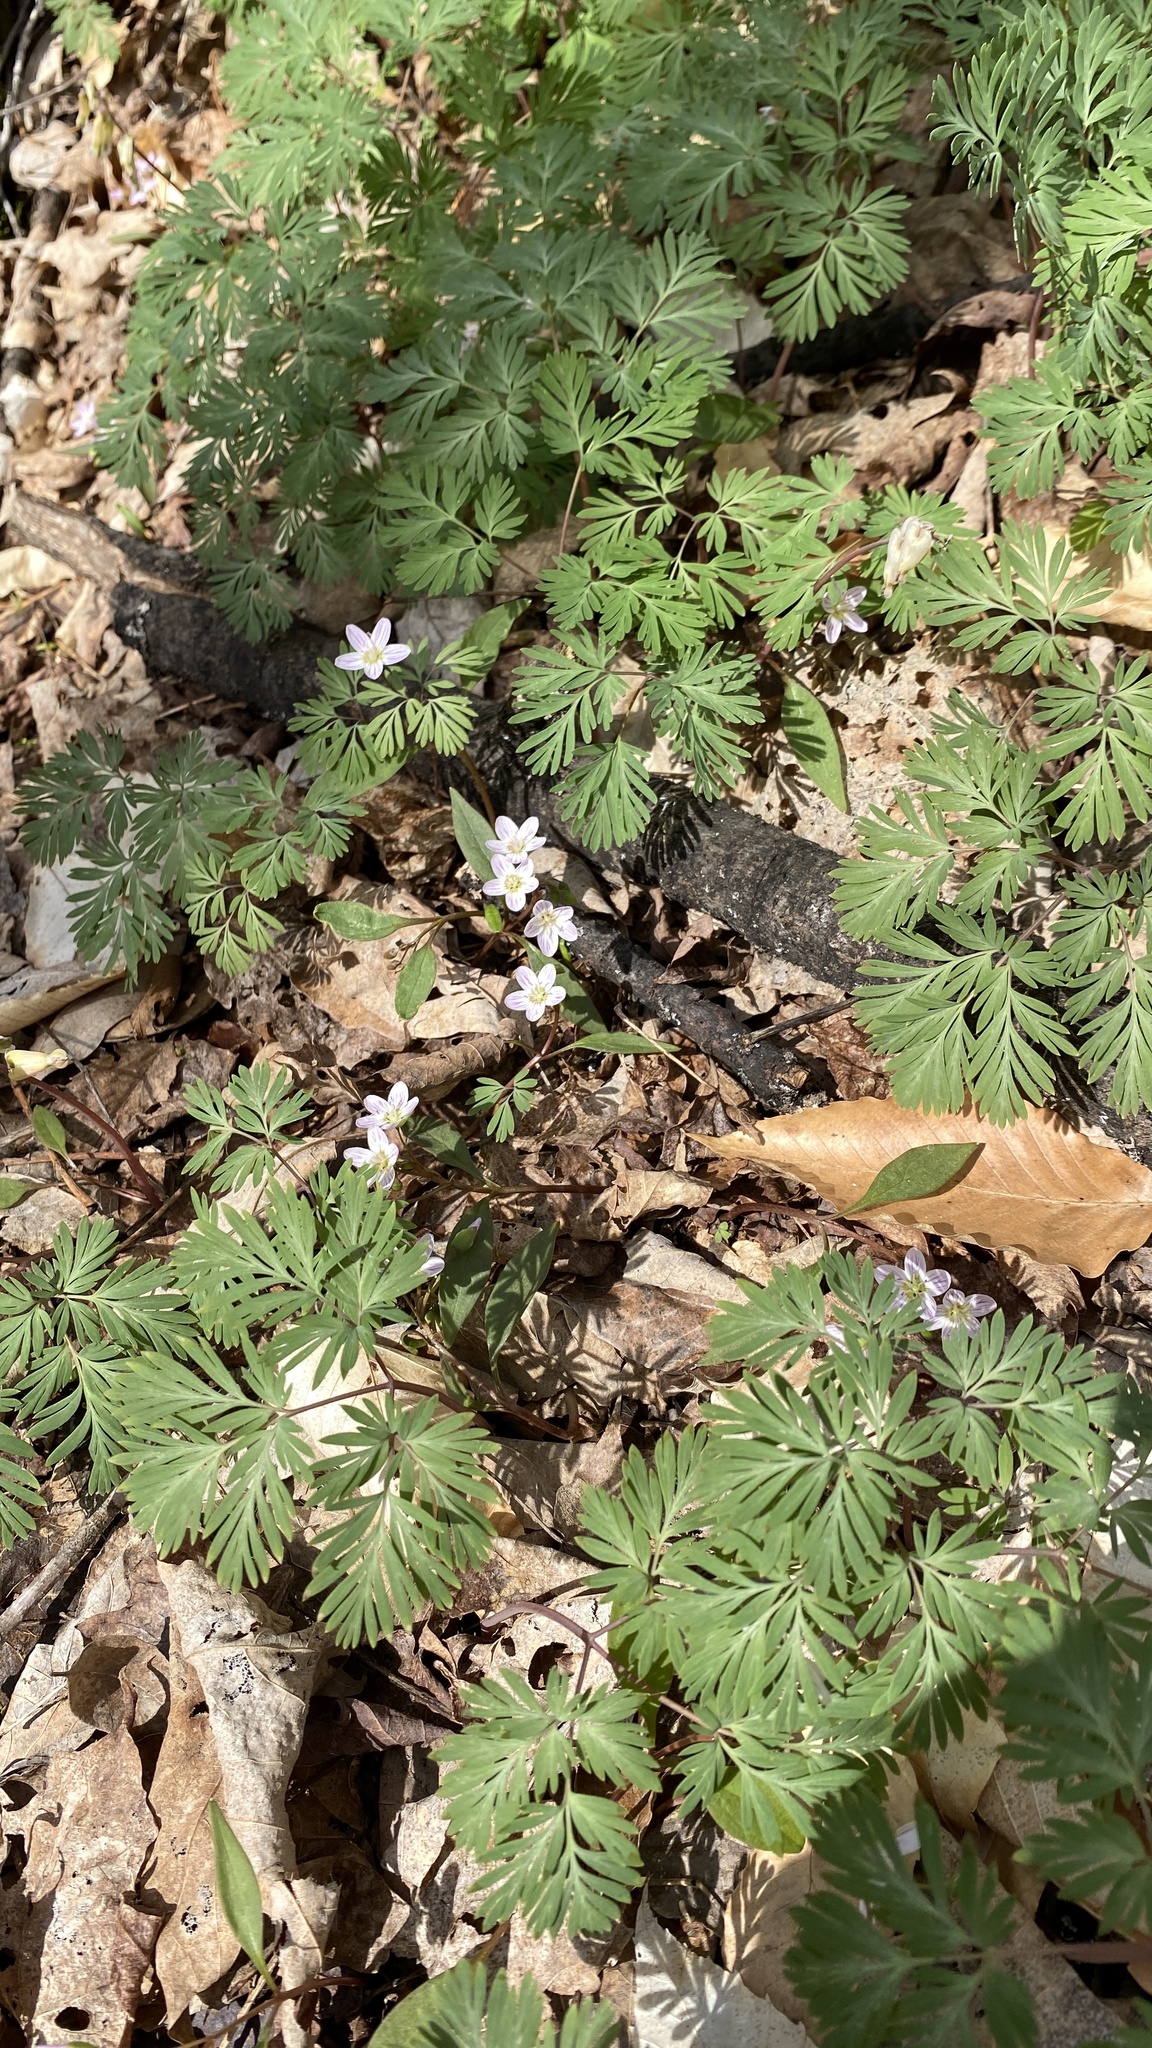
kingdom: Plantae
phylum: Tracheophyta
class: Magnoliopsida
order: Caryophyllales
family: Montiaceae
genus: Claytonia
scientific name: Claytonia caroliniana
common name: Carolina spring beauty
